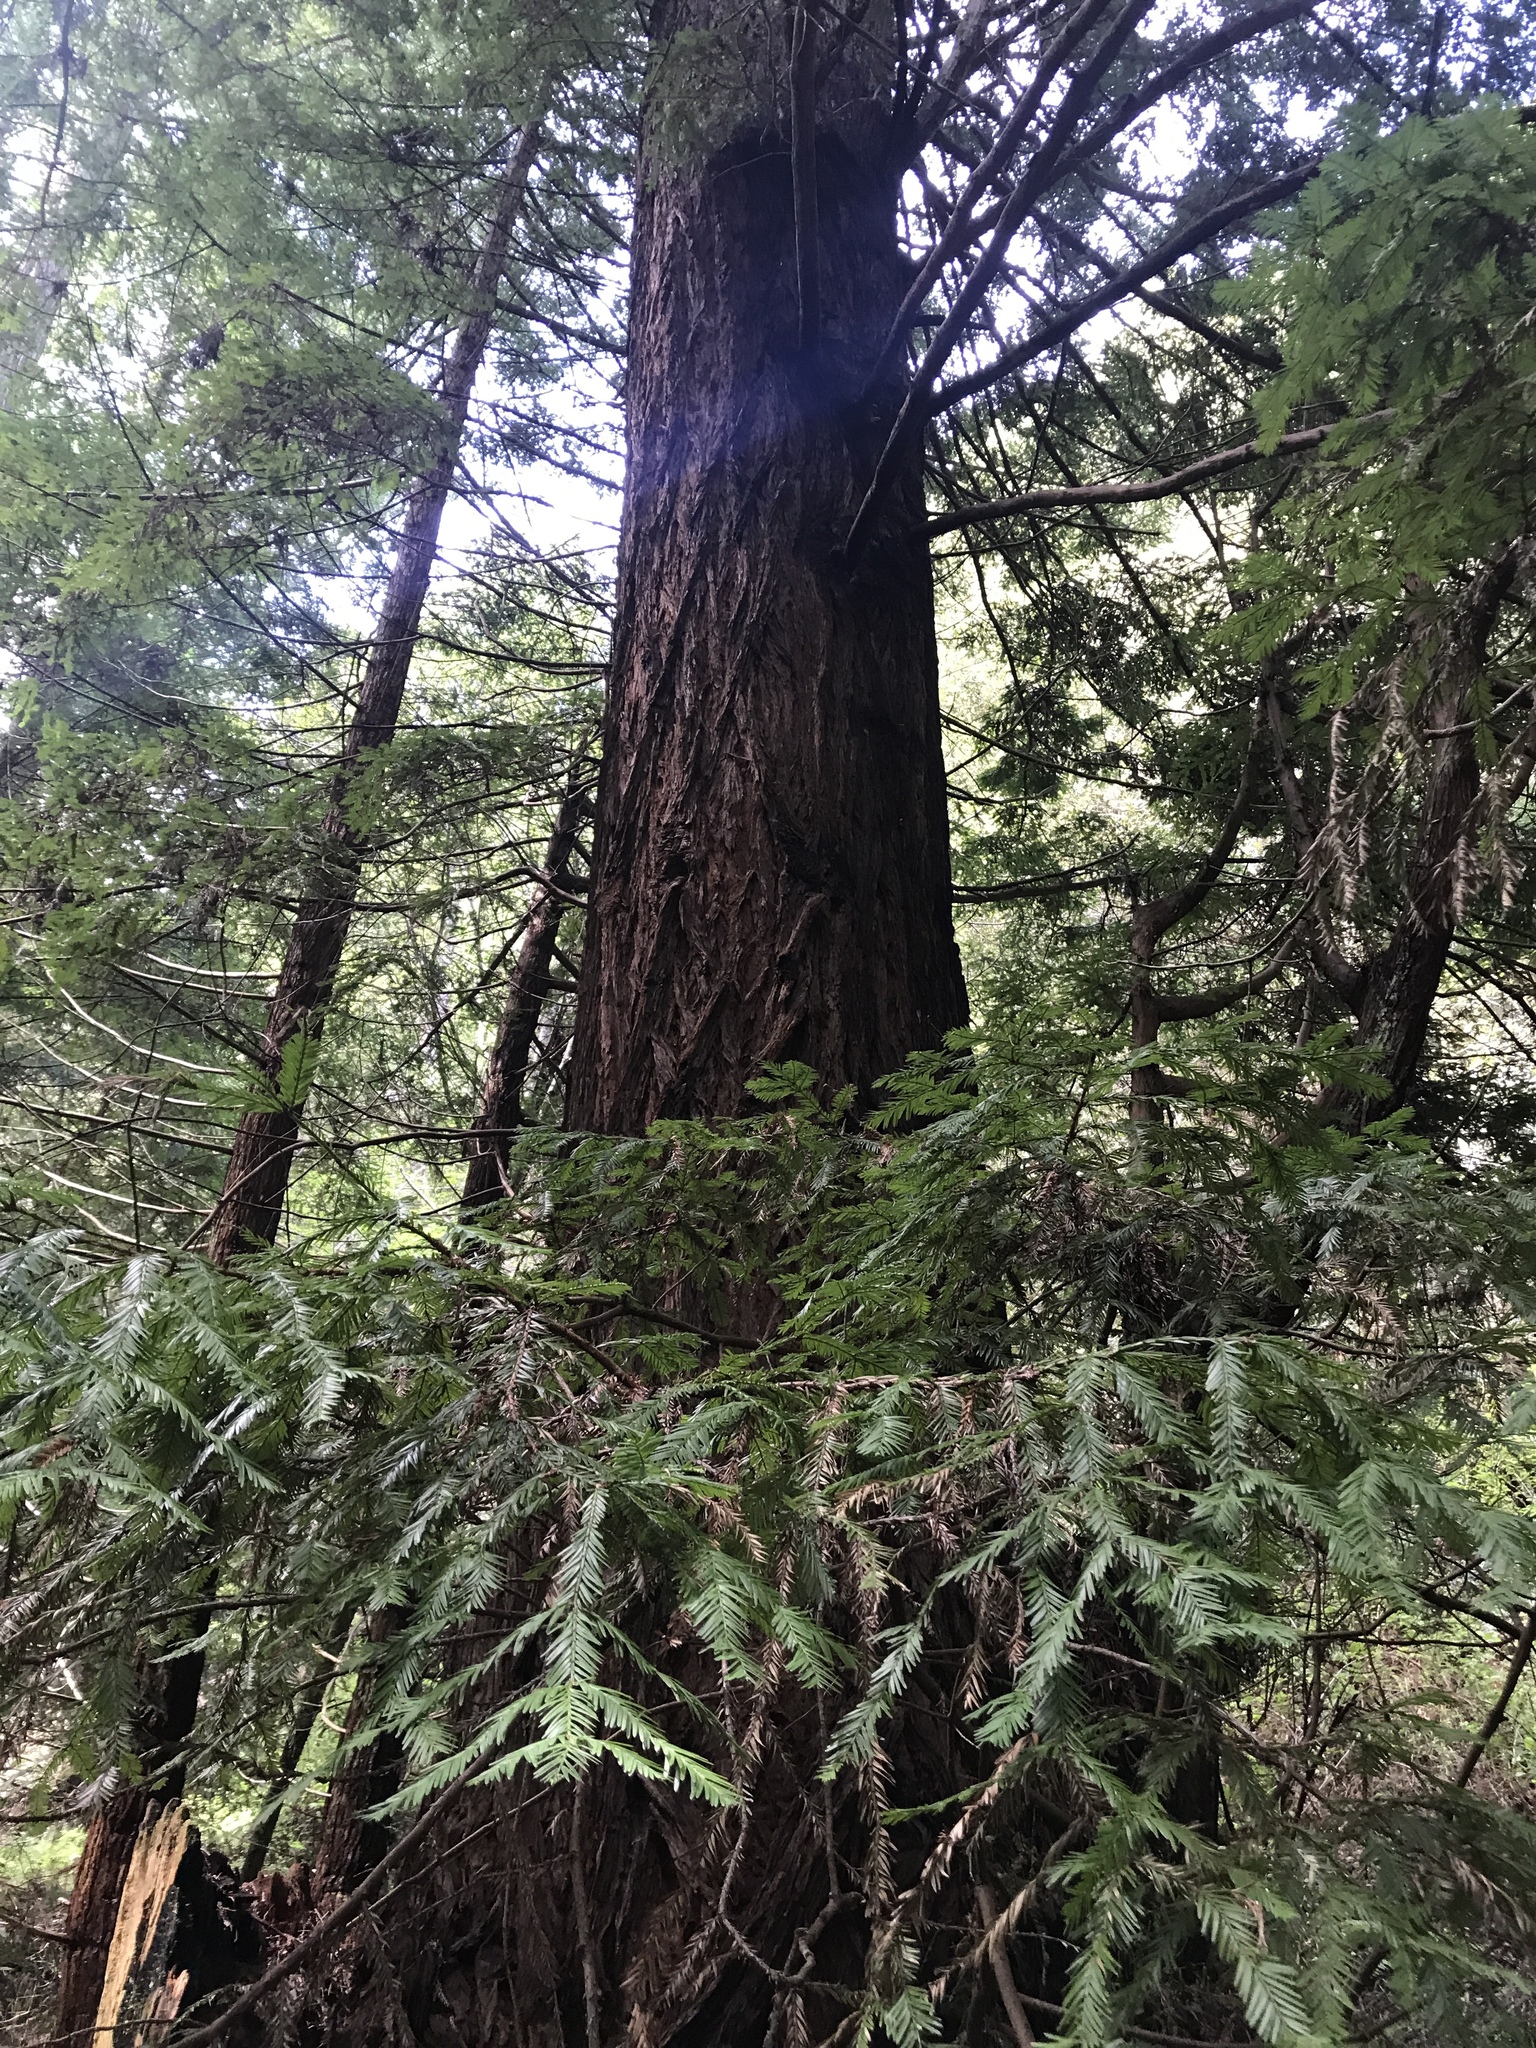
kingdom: Plantae
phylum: Tracheophyta
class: Pinopsida
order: Pinales
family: Cupressaceae
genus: Sequoia
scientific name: Sequoia sempervirens
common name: Coast redwood
